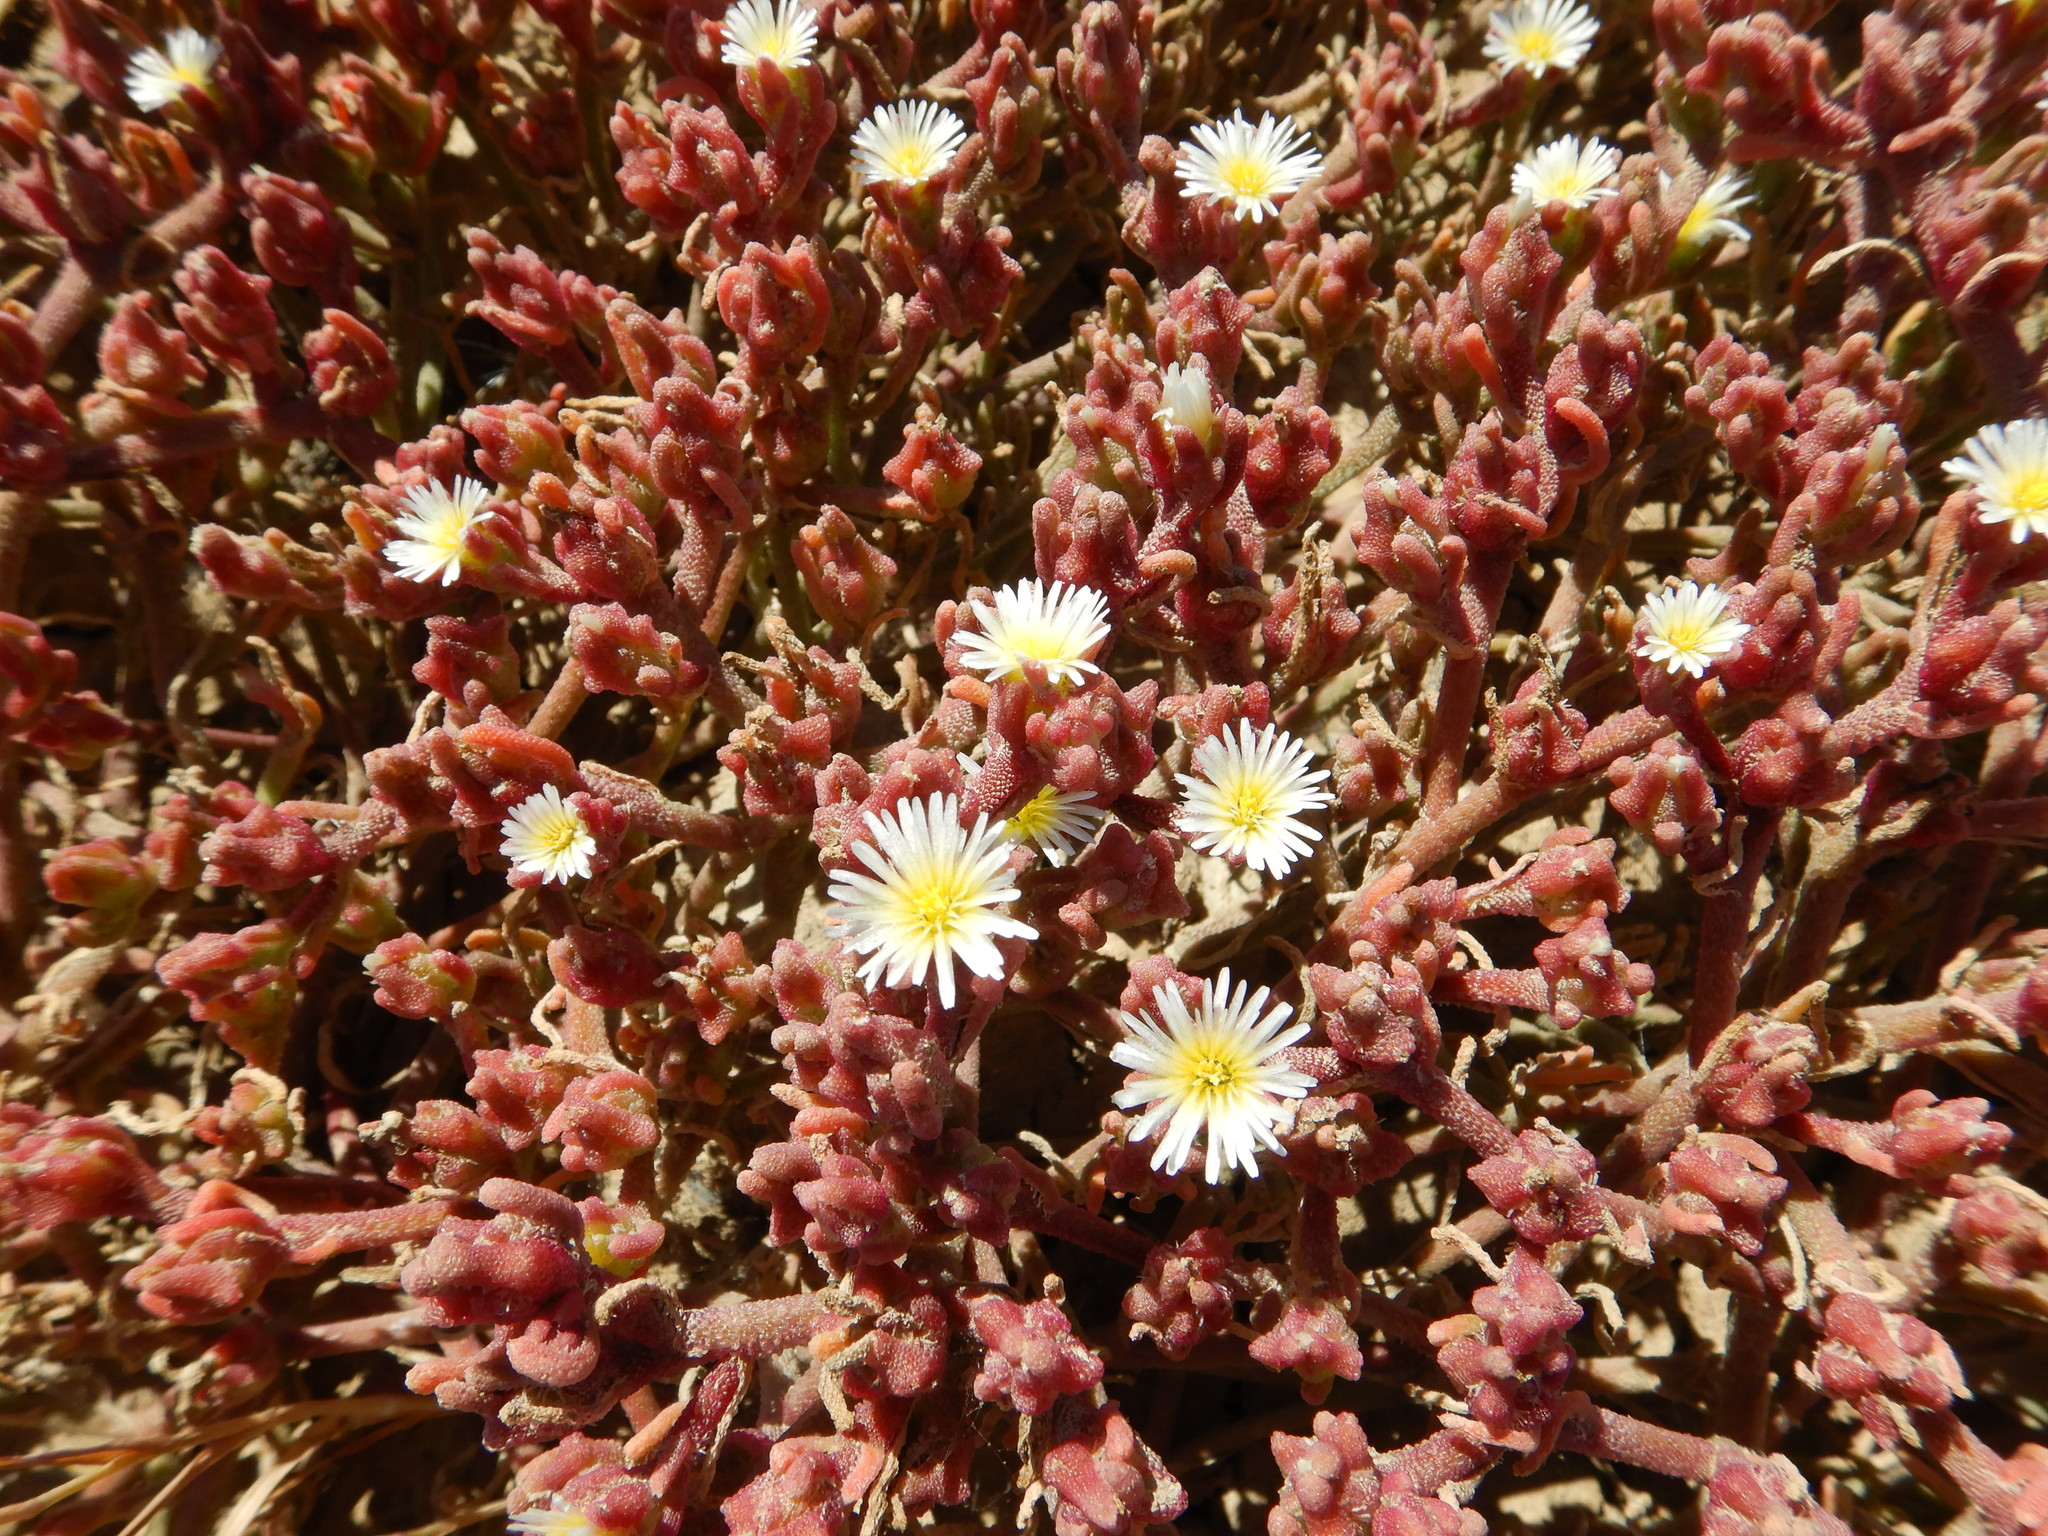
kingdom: Plantae
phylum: Tracheophyta
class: Magnoliopsida
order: Caryophyllales
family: Aizoaceae
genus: Mesembryanthemum
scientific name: Mesembryanthemum nodiflorum
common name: Slenderleaf iceplant
